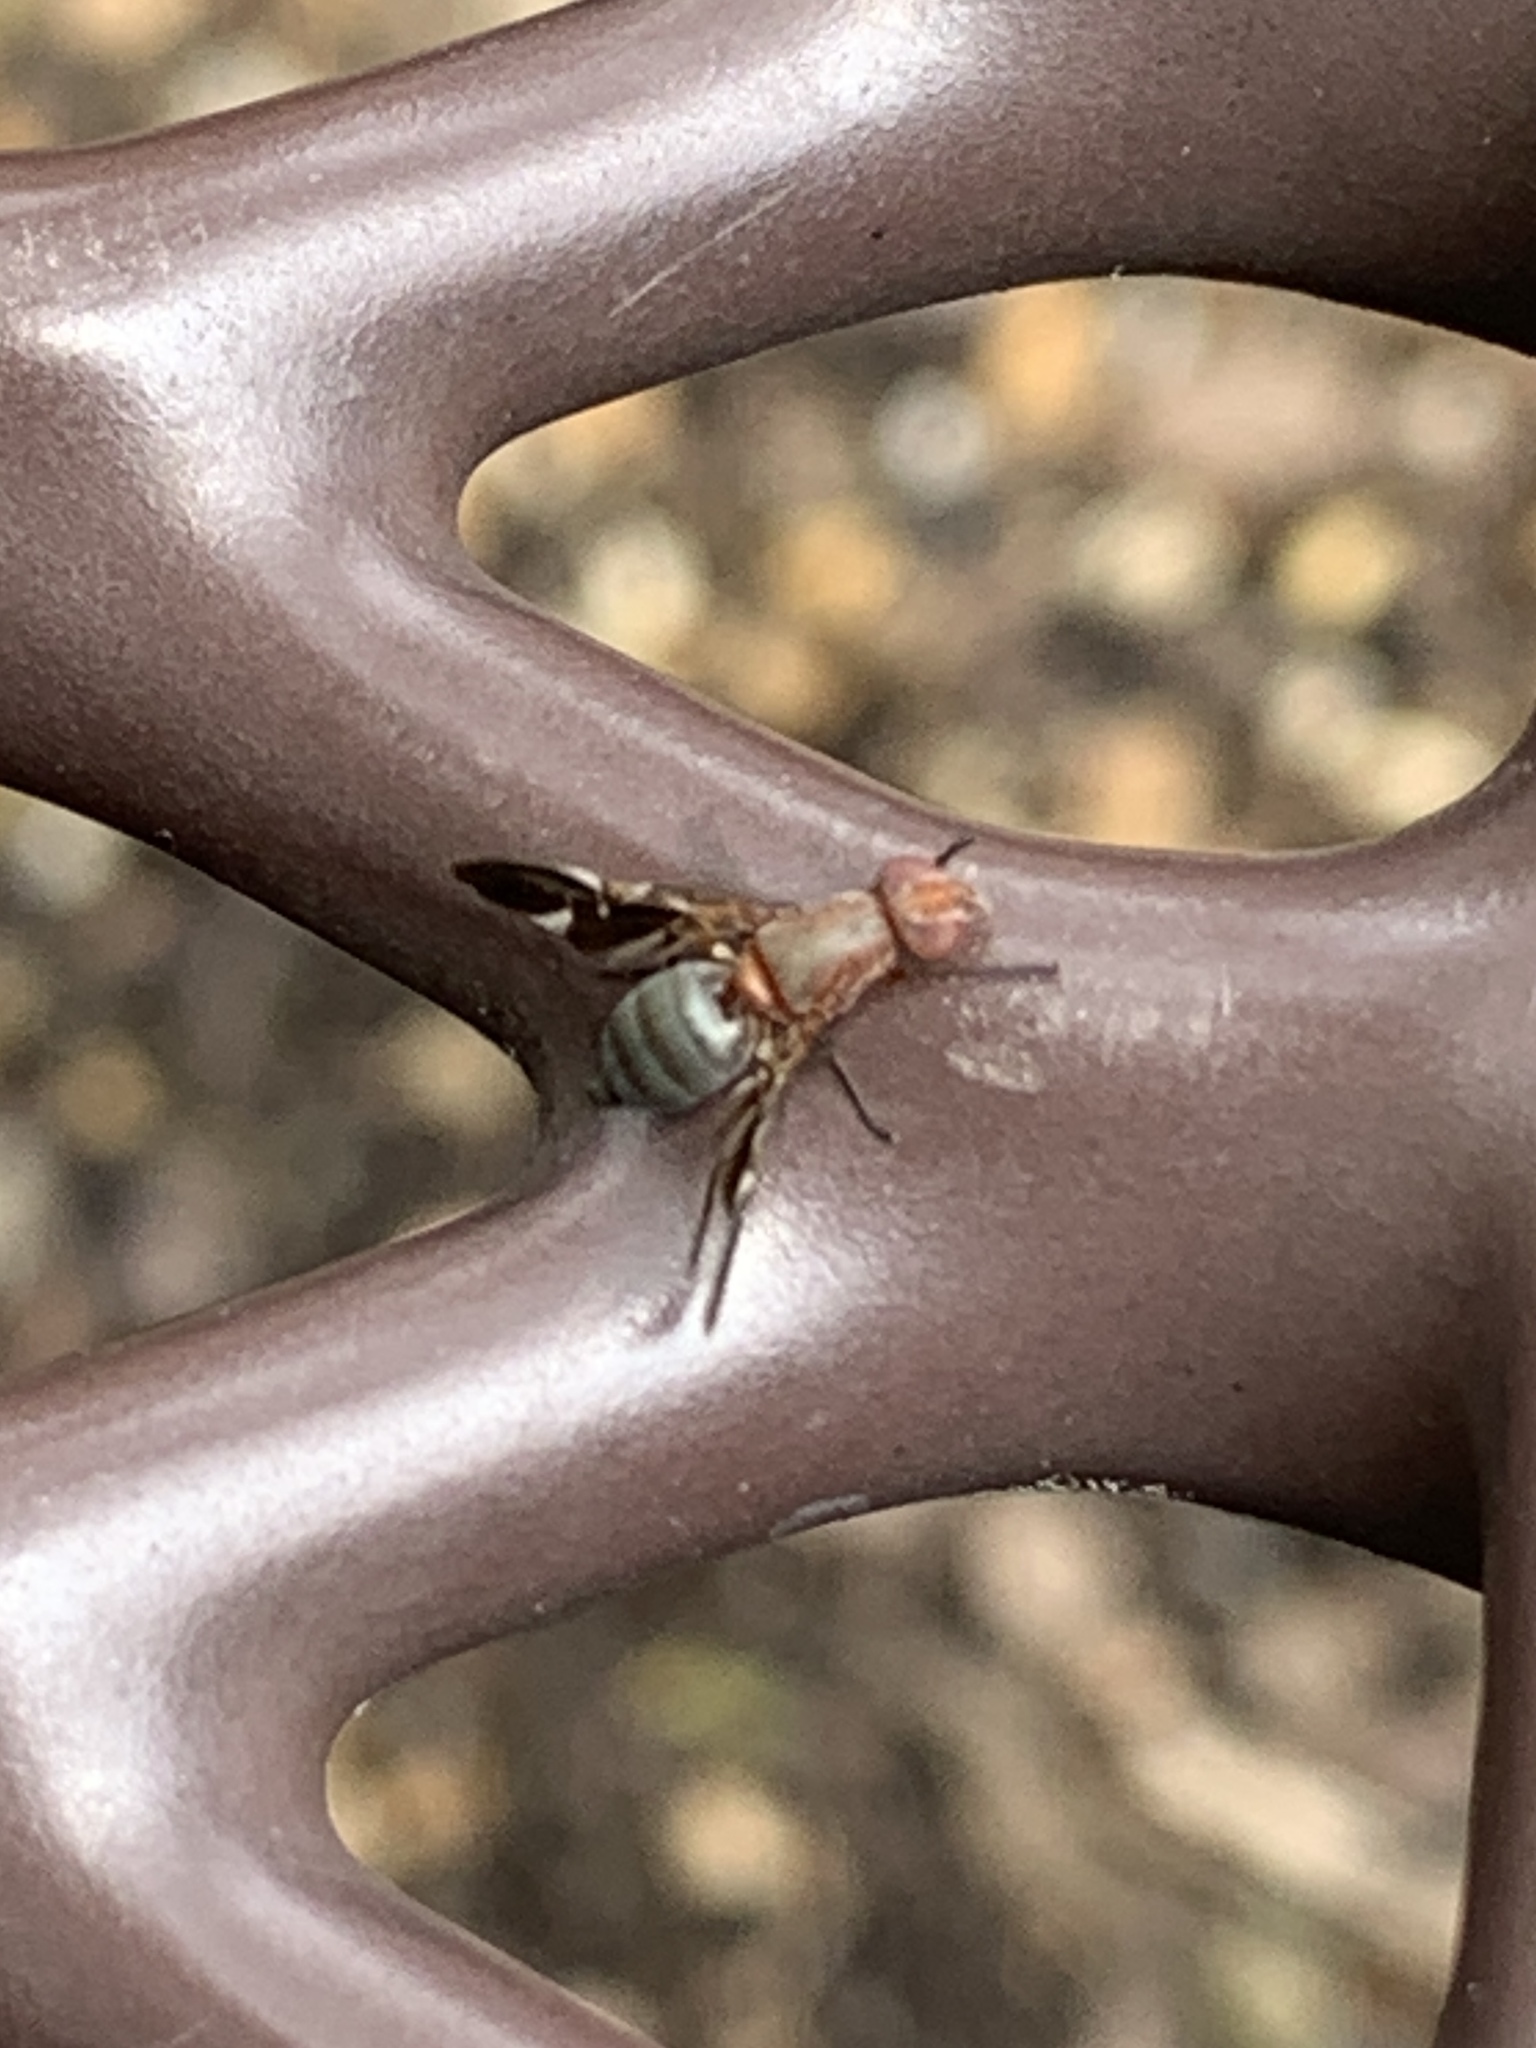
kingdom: Animalia
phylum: Arthropoda
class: Insecta
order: Diptera
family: Ulidiidae
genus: Delphinia
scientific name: Delphinia picta
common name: Common picture-winged fly
